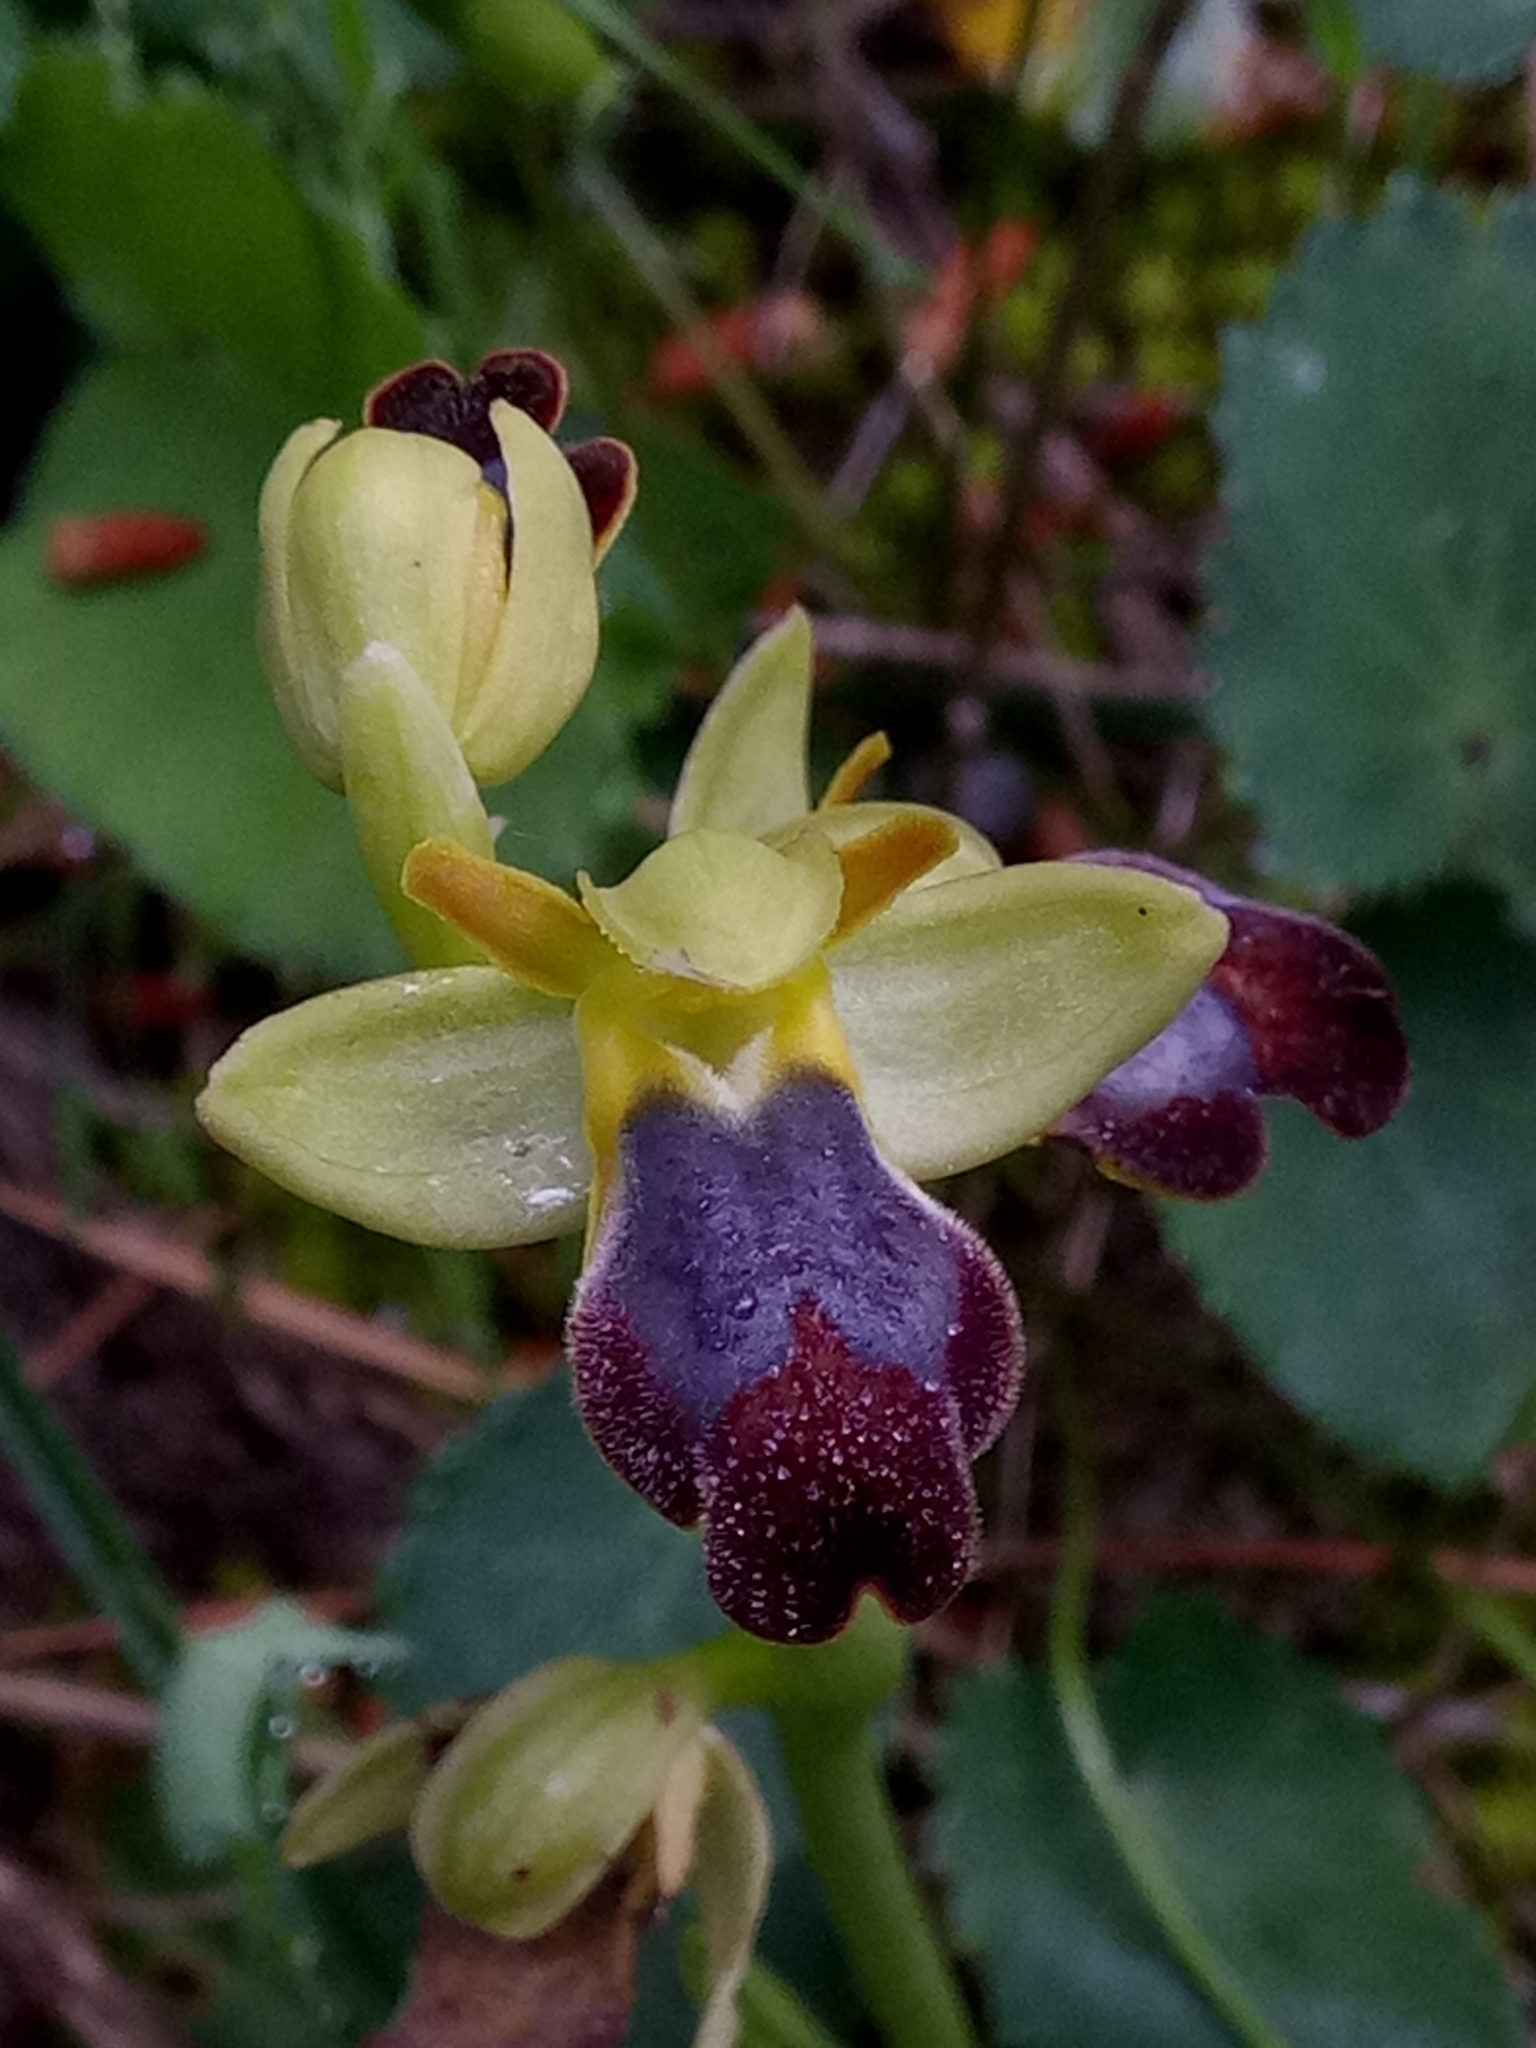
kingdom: Plantae
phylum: Tracheophyta
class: Liliopsida
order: Asparagales
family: Orchidaceae
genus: Ophrys
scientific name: Ophrys fusca
